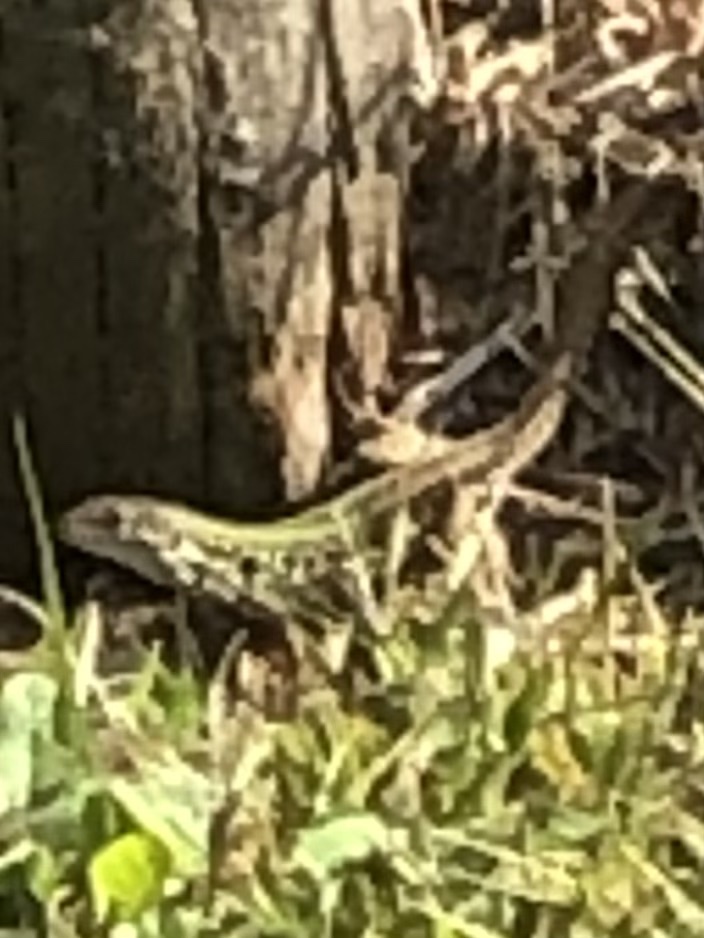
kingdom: Animalia
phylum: Chordata
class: Squamata
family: Lacertidae
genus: Podarcis
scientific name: Podarcis siculus
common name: Italian wall lizard
